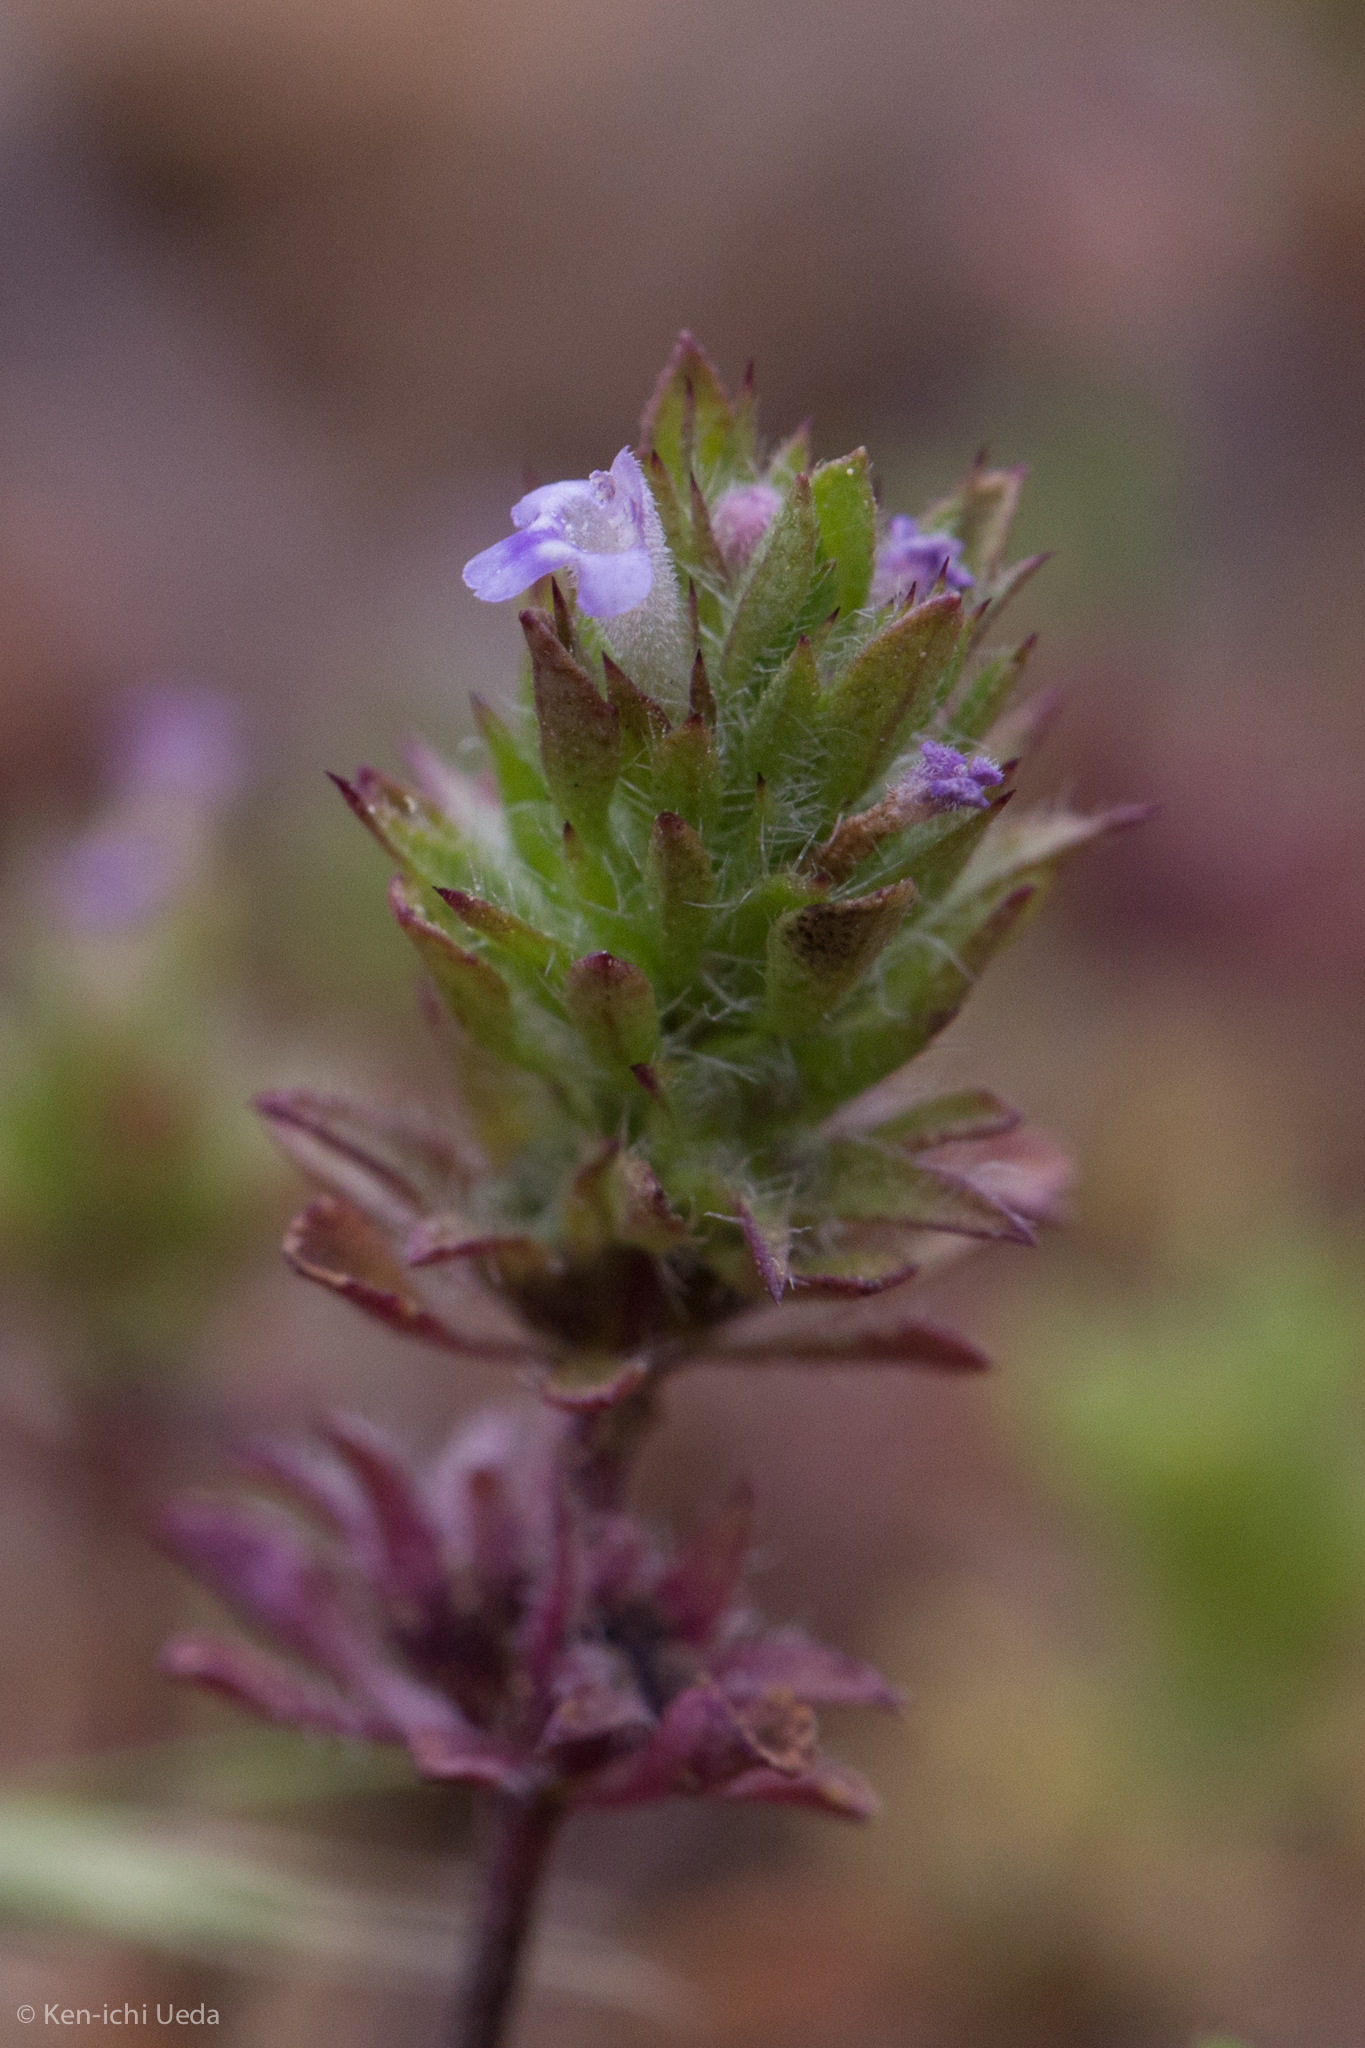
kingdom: Plantae
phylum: Tracheophyta
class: Magnoliopsida
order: Lamiales
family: Lamiaceae
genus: Pogogyne
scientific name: Pogogyne serpylloides
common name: Thymeleaf mesamint
